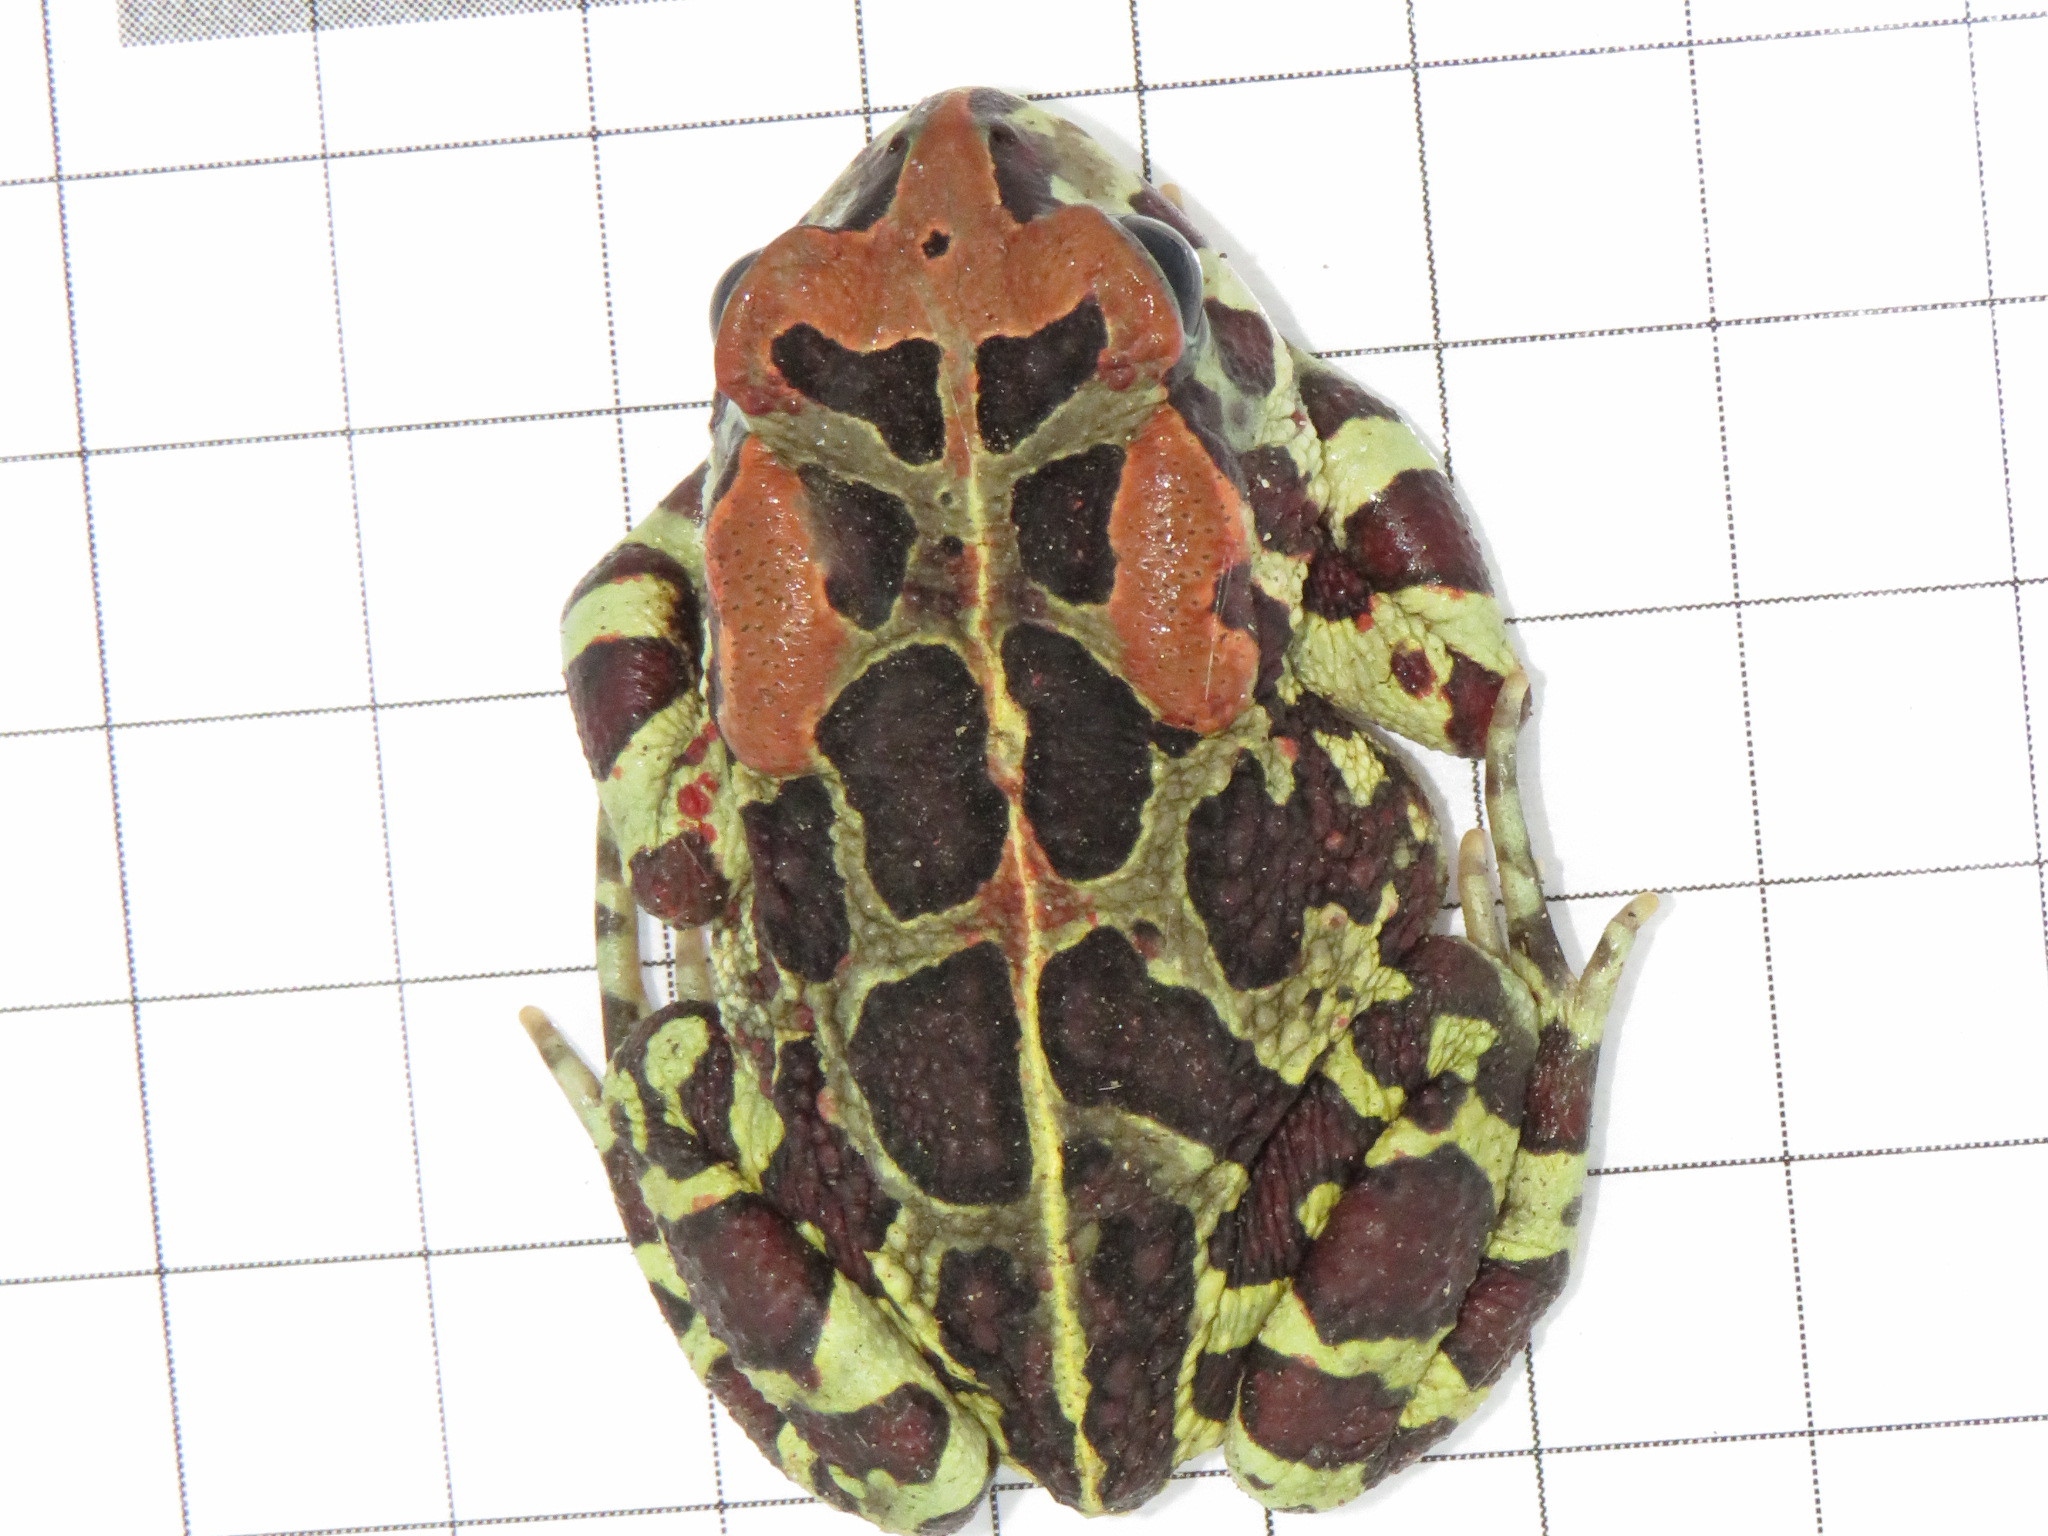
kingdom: Animalia
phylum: Chordata
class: Amphibia
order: Anura
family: Bufonidae
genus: Sclerophrys
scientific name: Sclerophrys pantherina
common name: Panther toad
